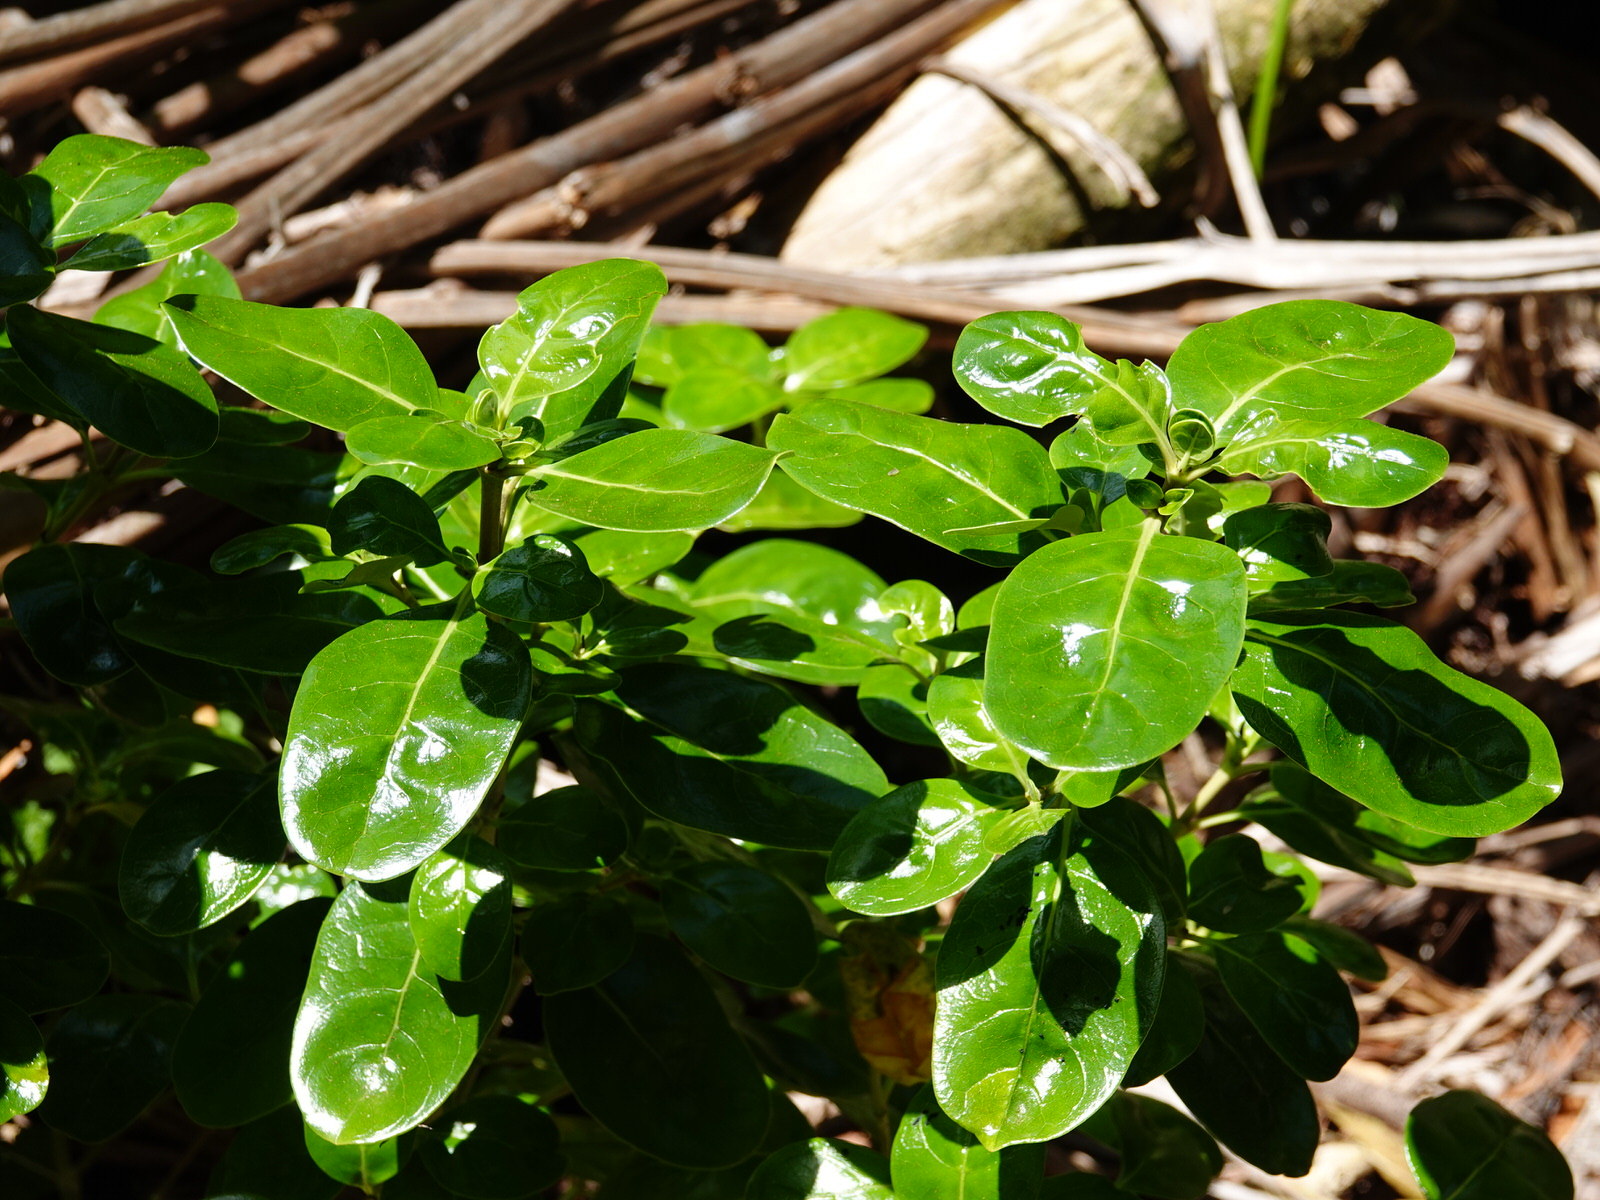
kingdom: Plantae
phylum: Tracheophyta
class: Magnoliopsida
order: Gentianales
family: Rubiaceae
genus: Coprosma
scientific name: Coprosma repens
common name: Tree bedstraw
